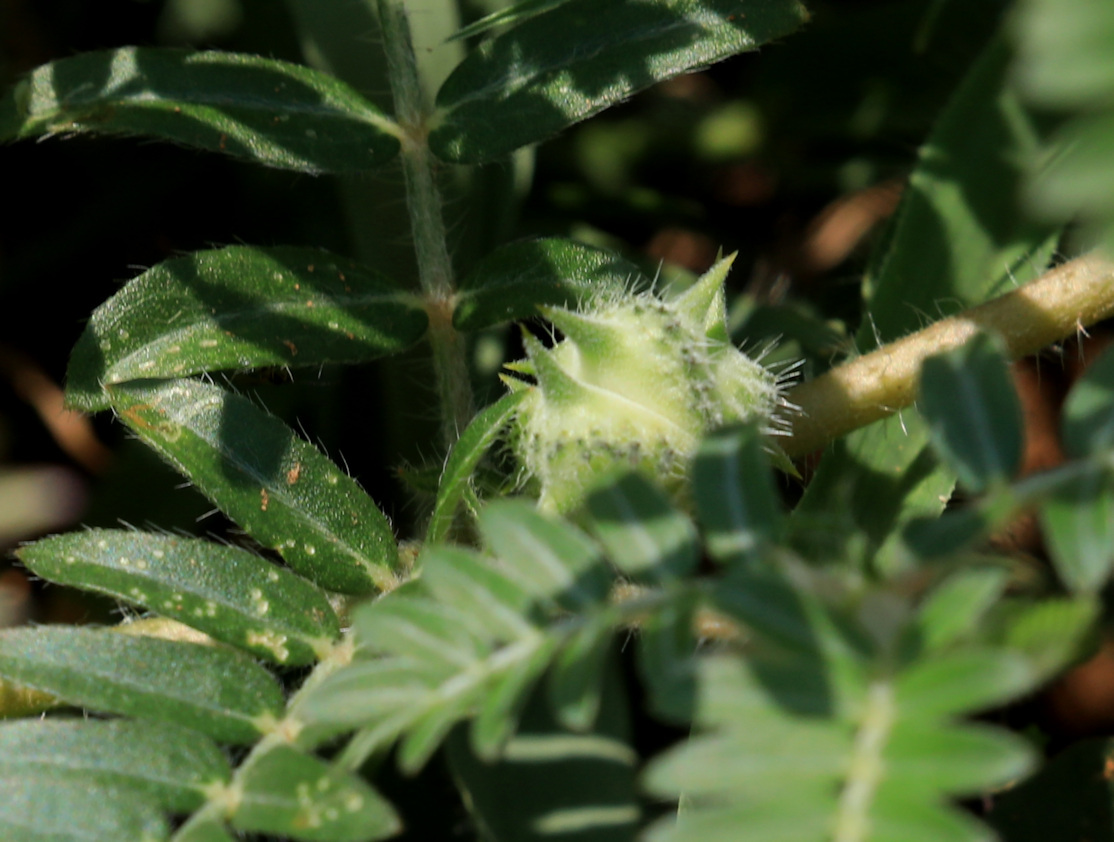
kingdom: Plantae
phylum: Tracheophyta
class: Magnoliopsida
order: Zygophyllales
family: Zygophyllaceae
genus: Tribulus
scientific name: Tribulus terrestris
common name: Puncturevine
